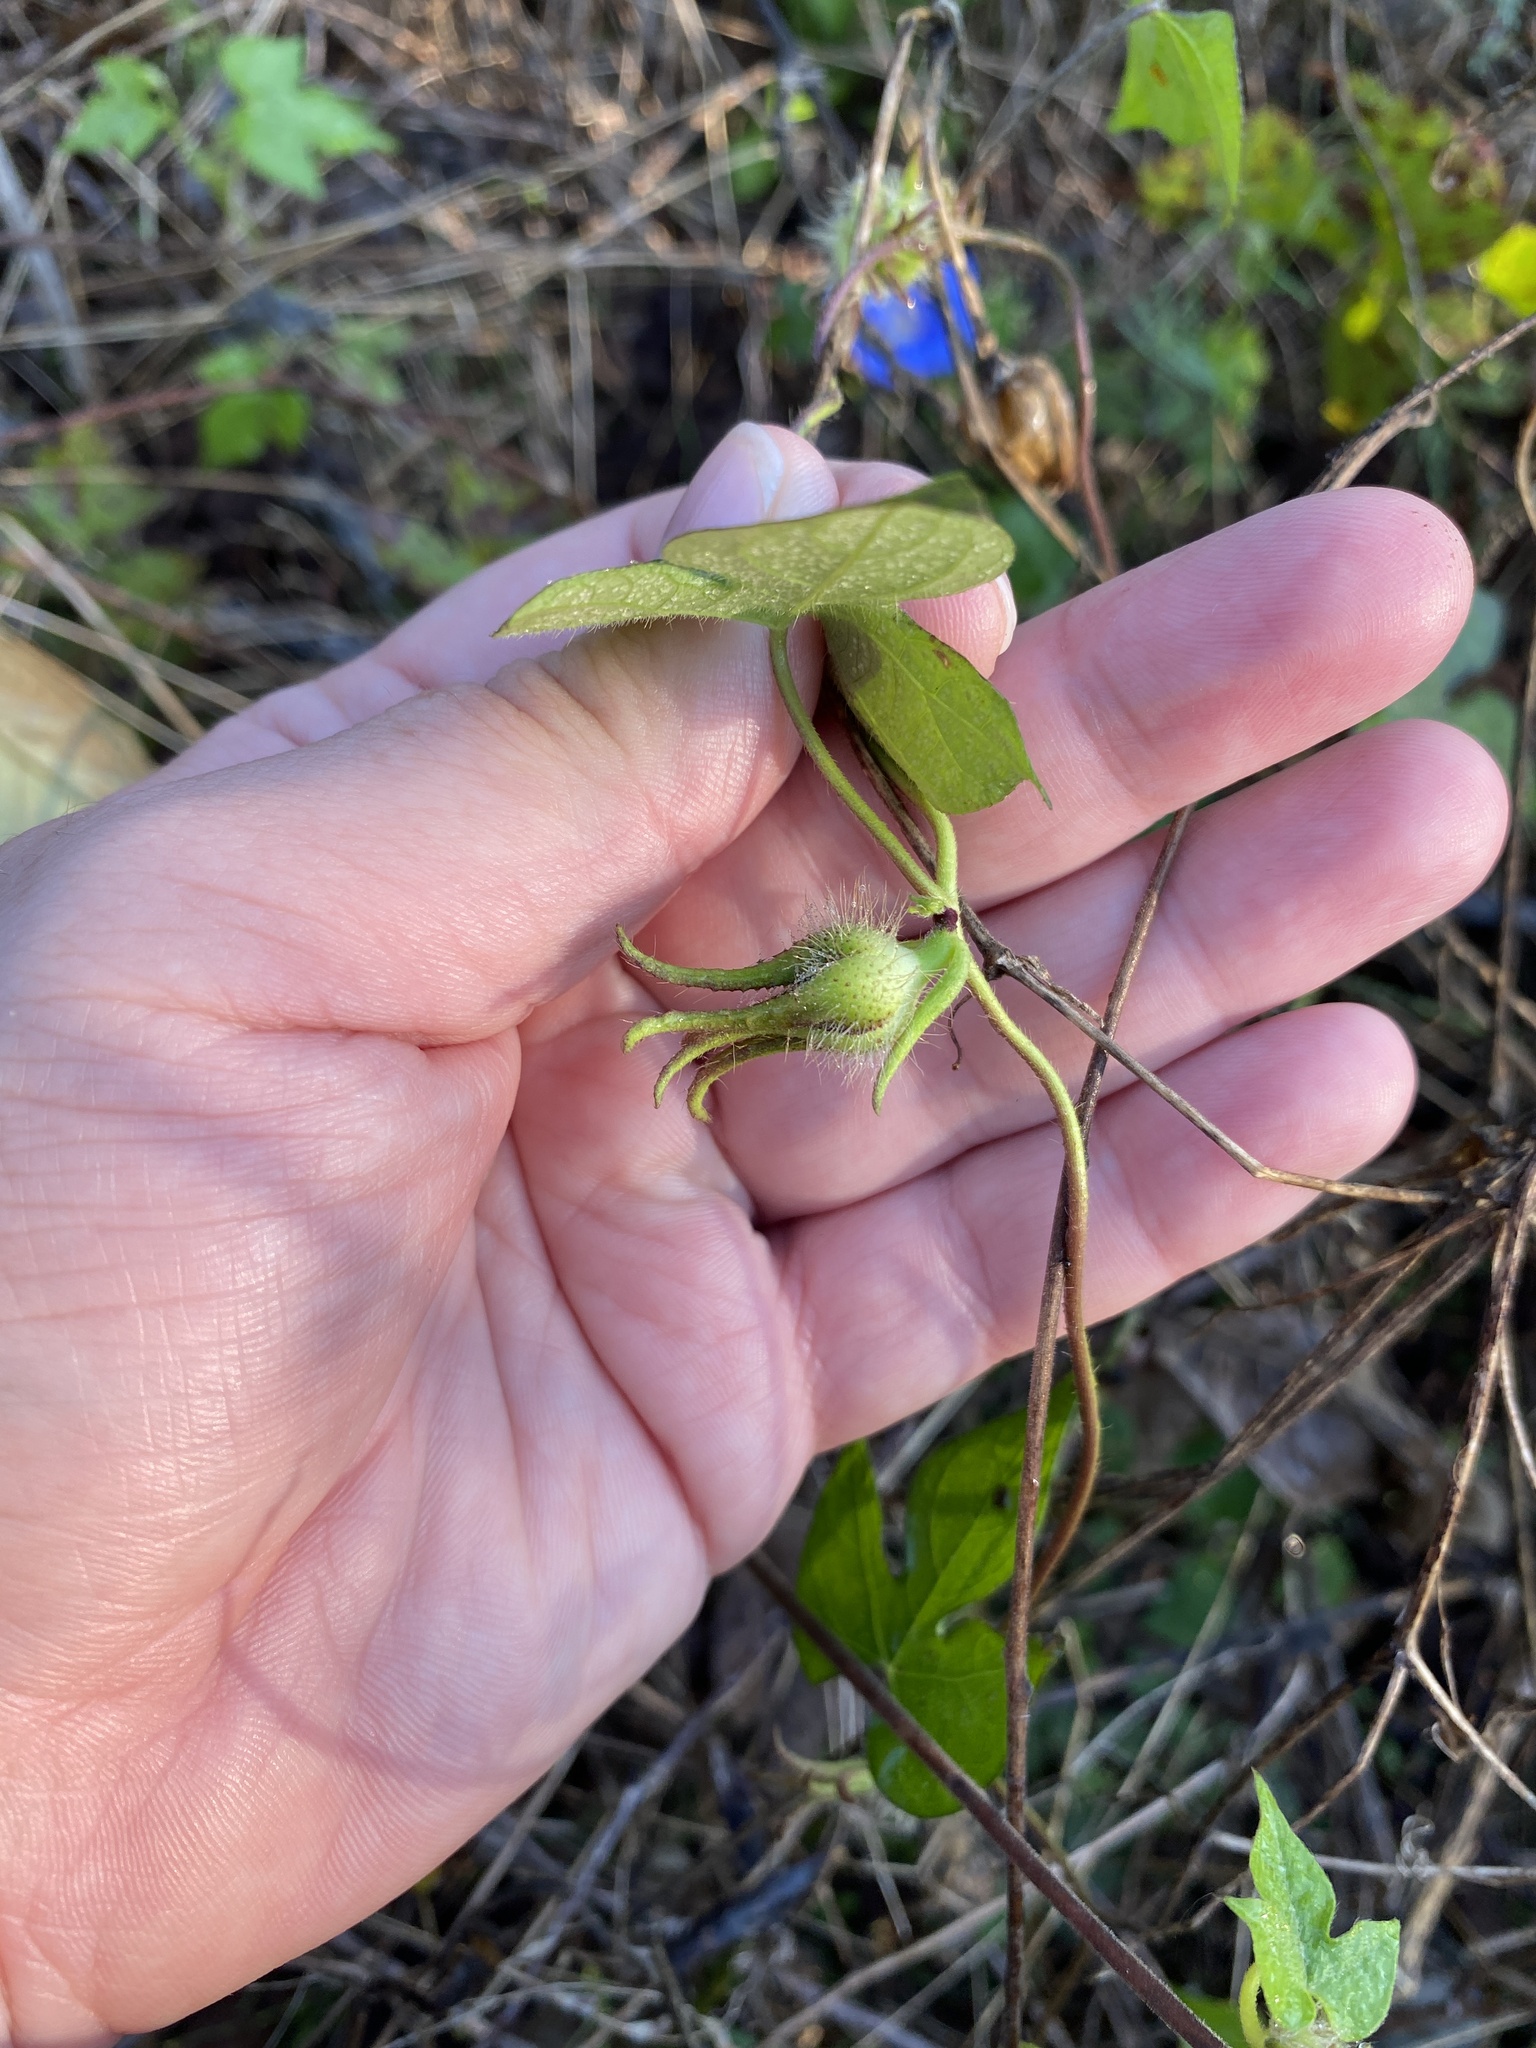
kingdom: Plantae
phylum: Tracheophyta
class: Magnoliopsida
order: Solanales
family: Convolvulaceae
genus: Ipomoea
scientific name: Ipomoea hederacea
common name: Ivy-leaved morning-glory
